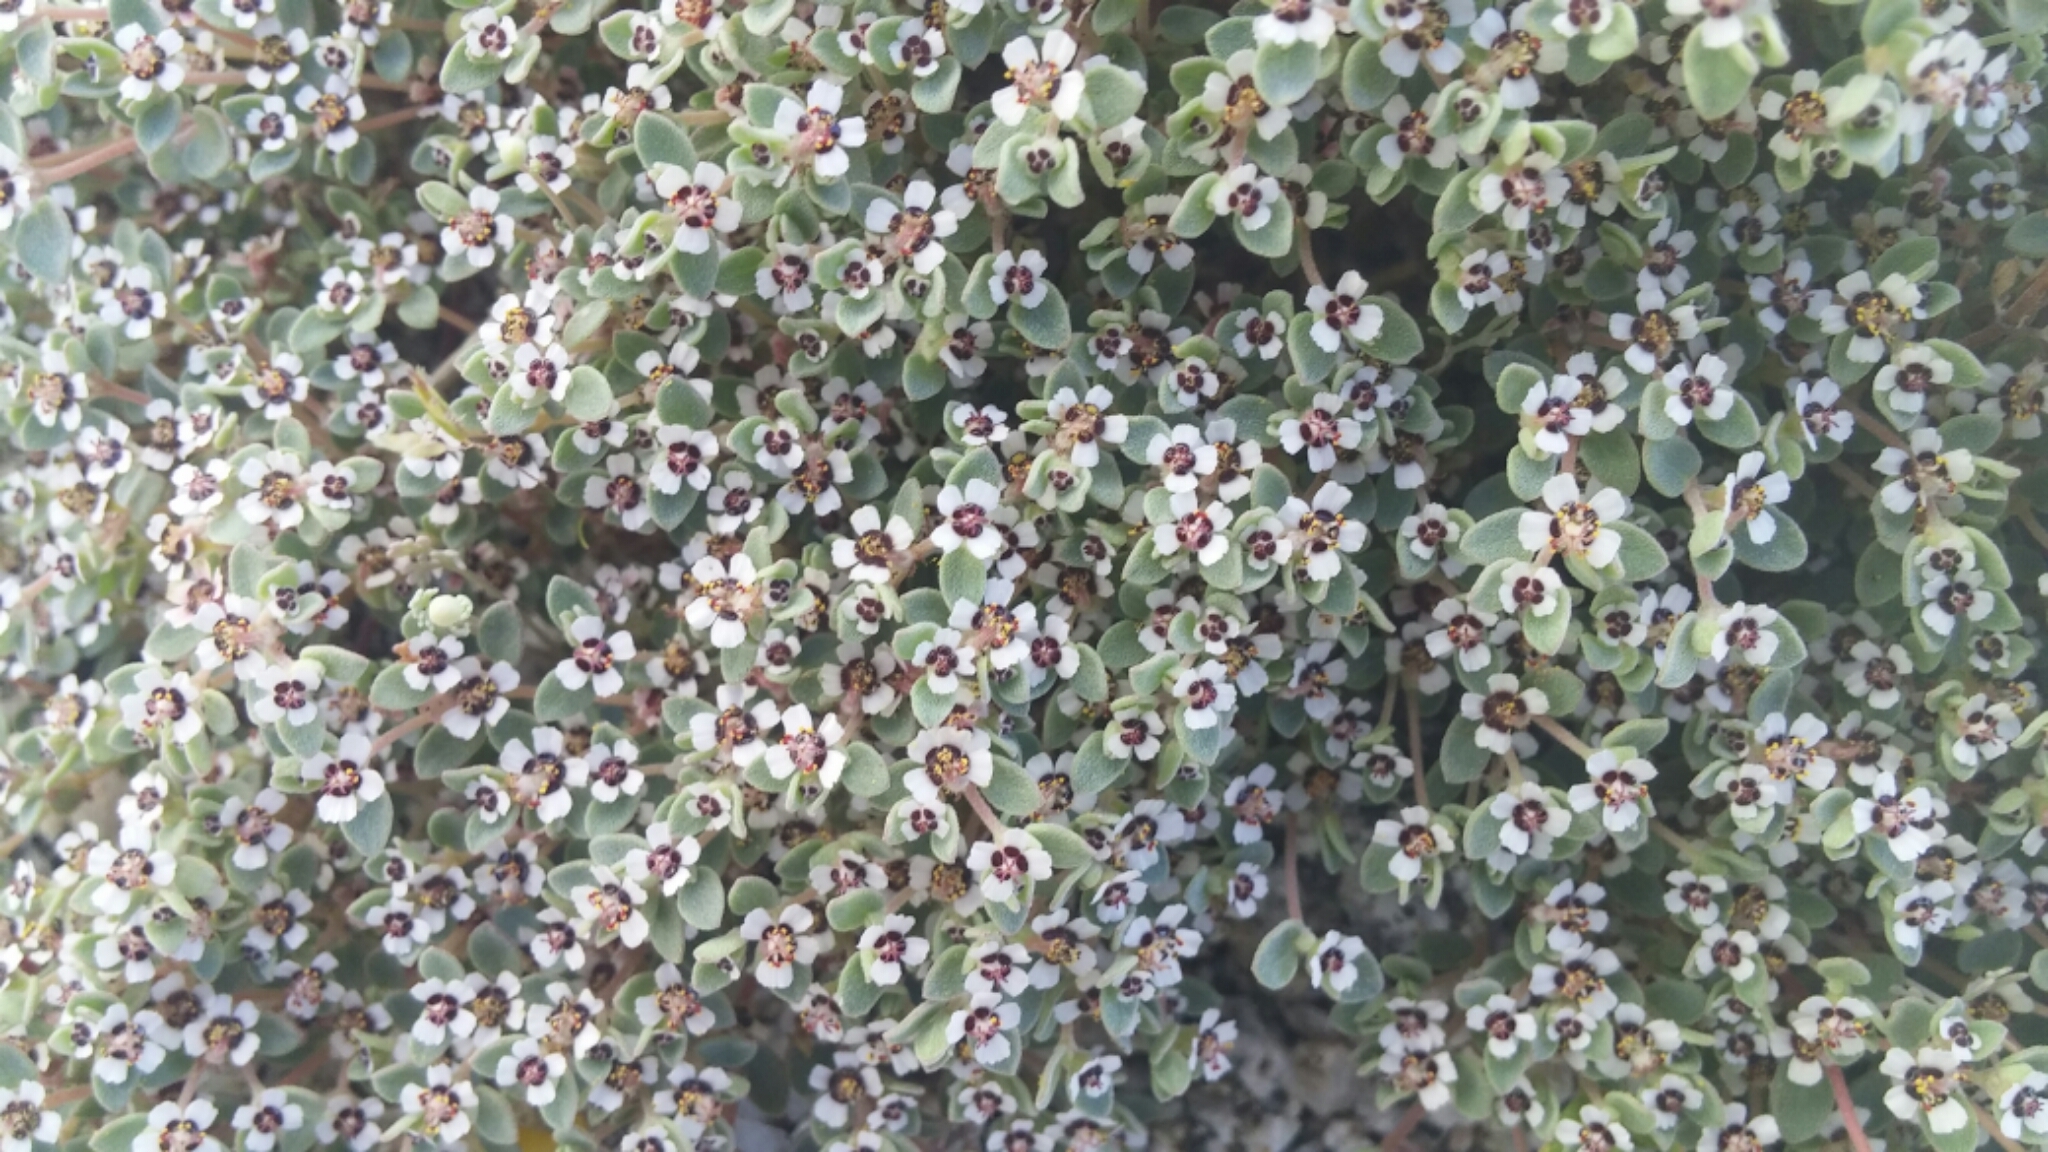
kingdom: Plantae
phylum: Tracheophyta
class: Magnoliopsida
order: Malpighiales
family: Euphorbiaceae
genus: Euphorbia
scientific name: Euphorbia melanadenia
